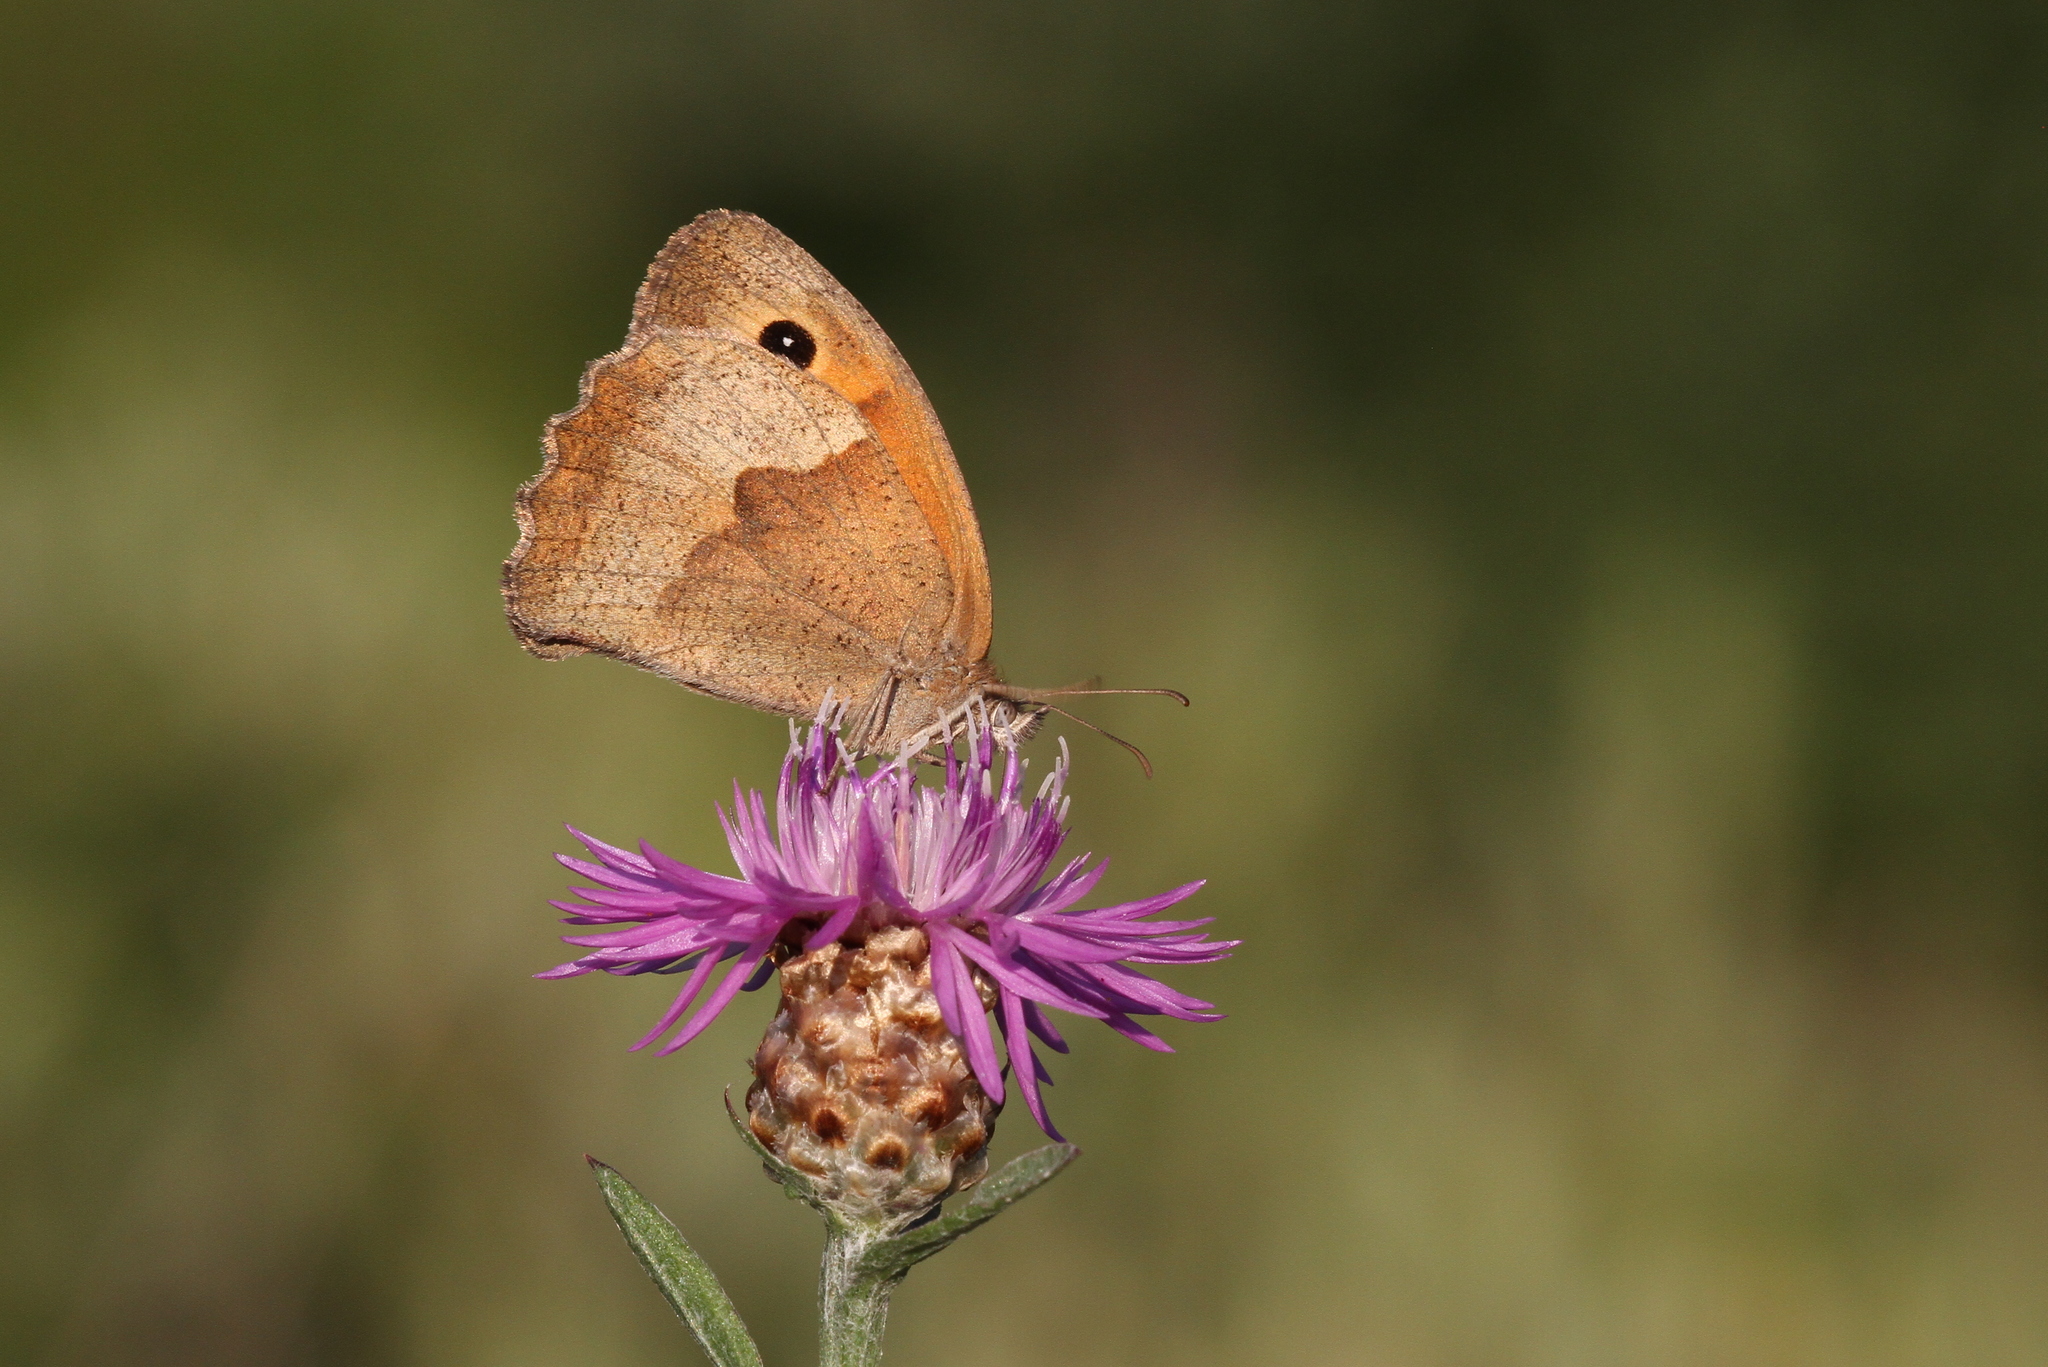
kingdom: Animalia
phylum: Arthropoda
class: Insecta
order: Lepidoptera
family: Nymphalidae
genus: Maniola
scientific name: Maniola jurtina
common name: Meadow brown
